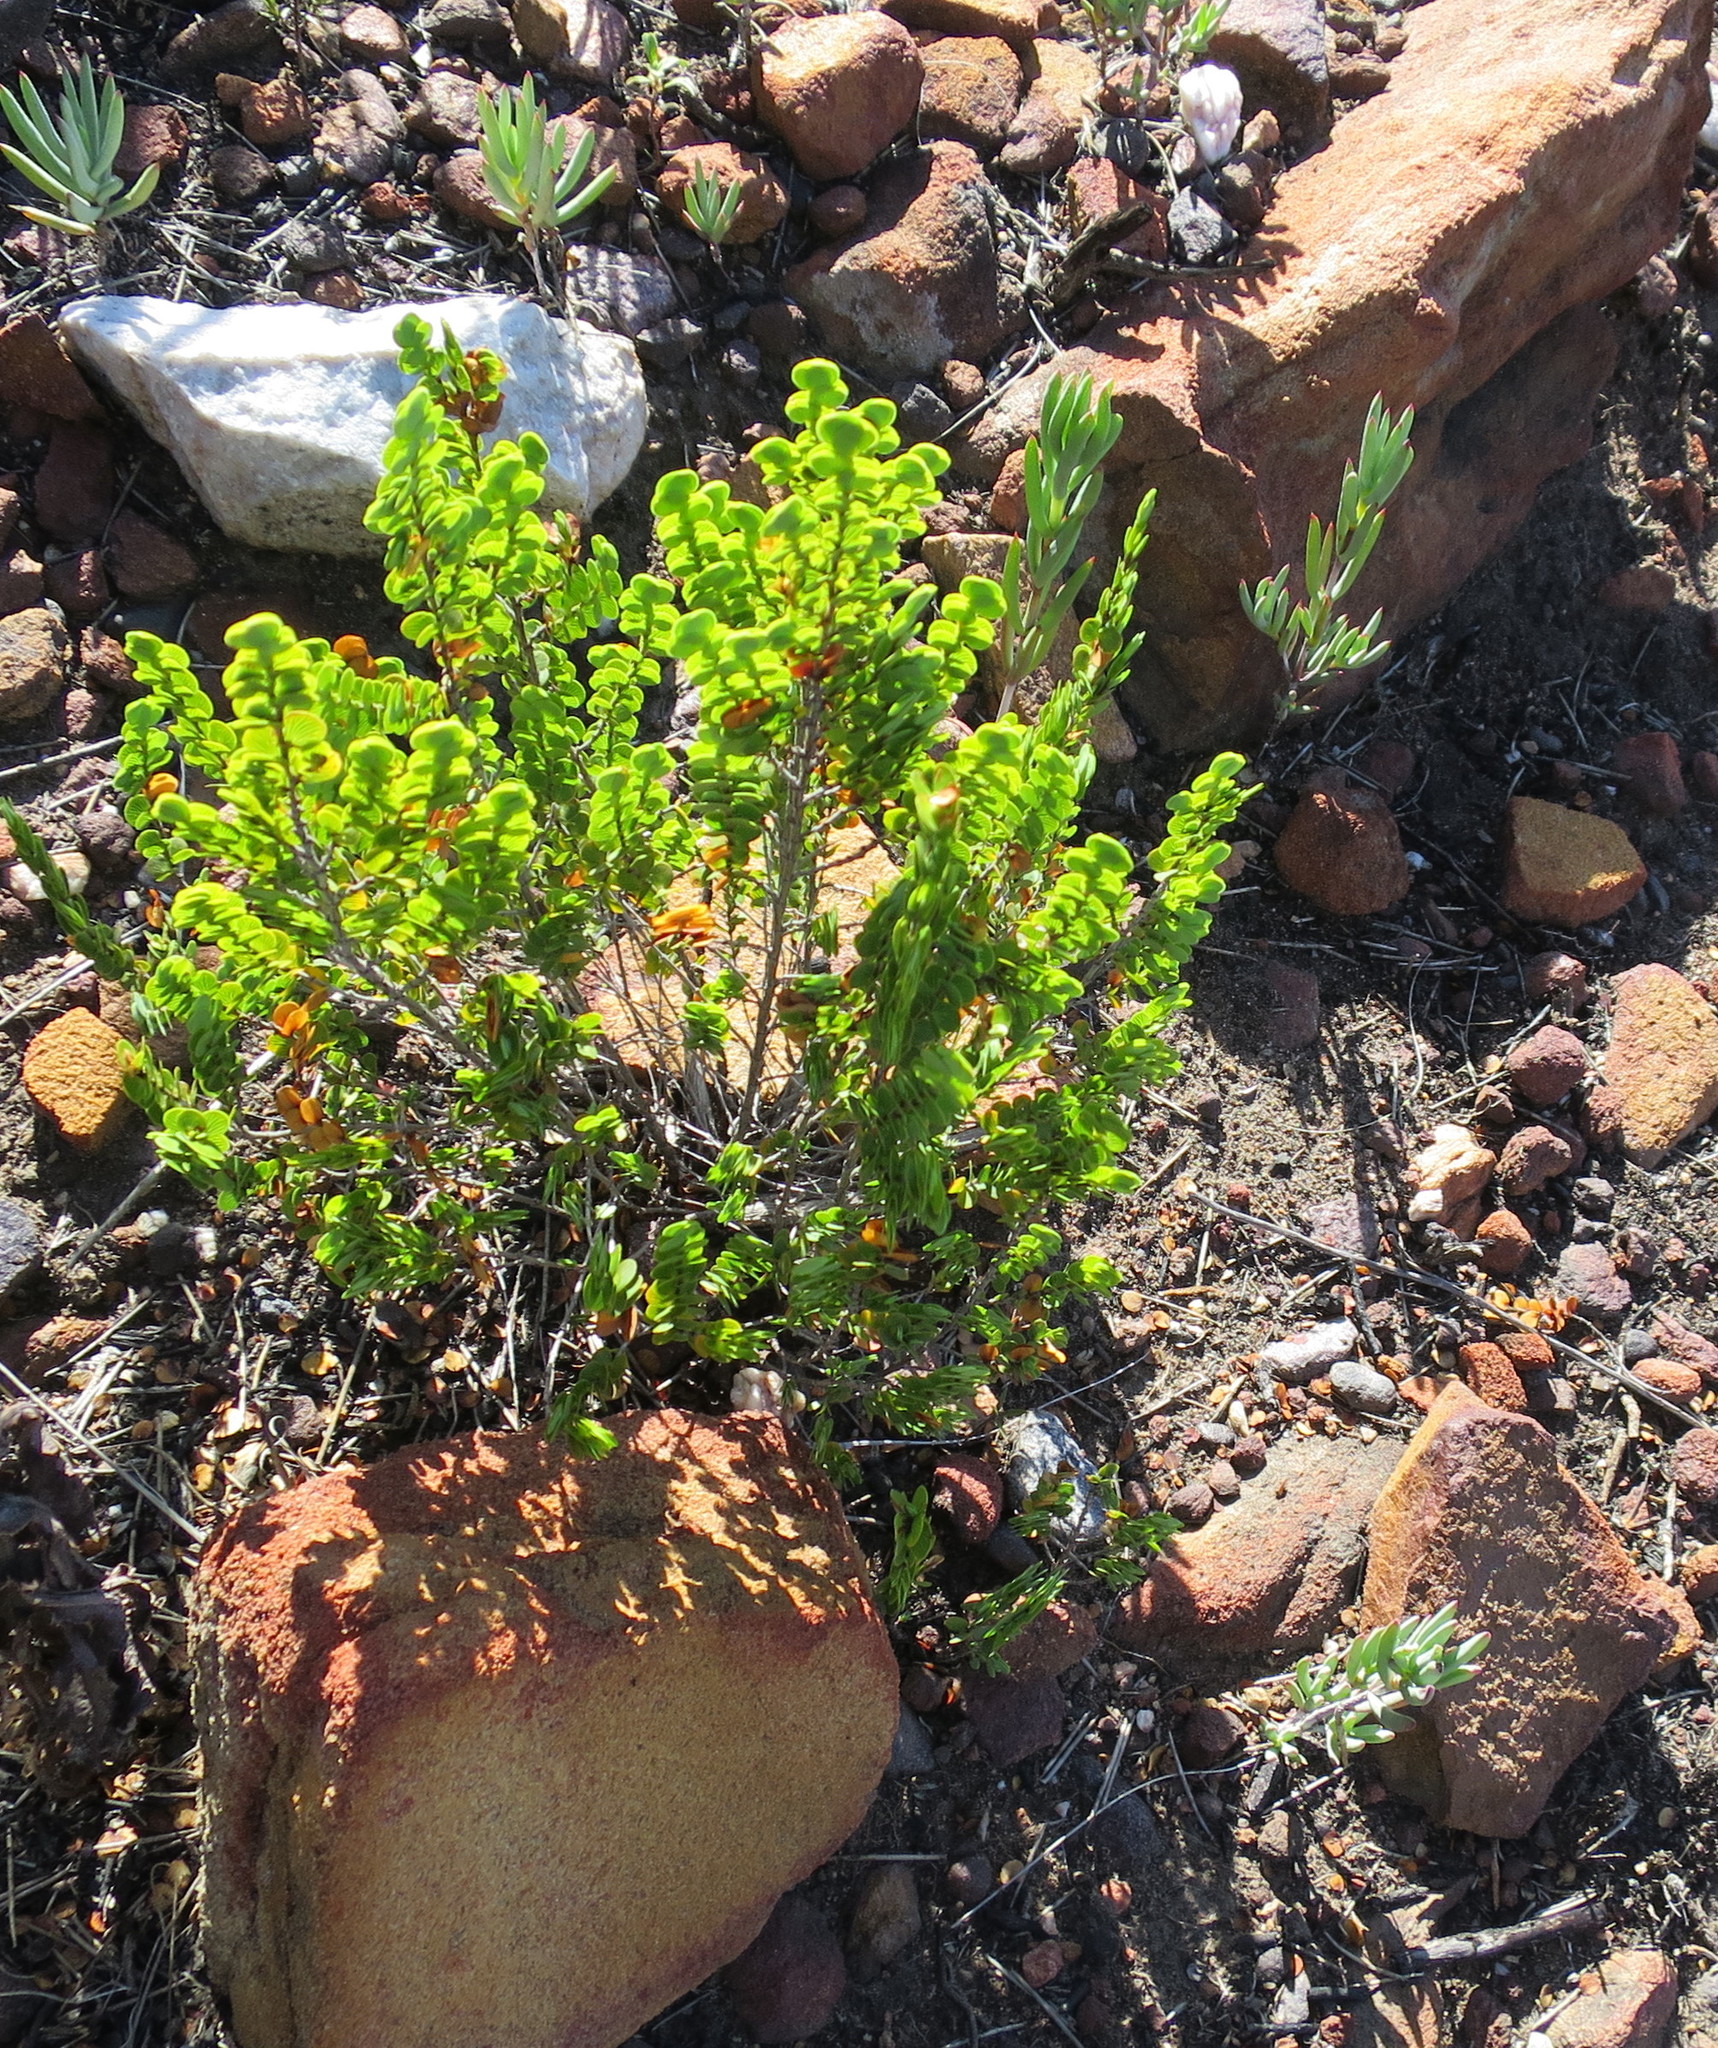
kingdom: Plantae
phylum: Tracheophyta
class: Magnoliopsida
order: Rosales
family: Rosaceae
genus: Cliffortia
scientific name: Cliffortia pulchella
